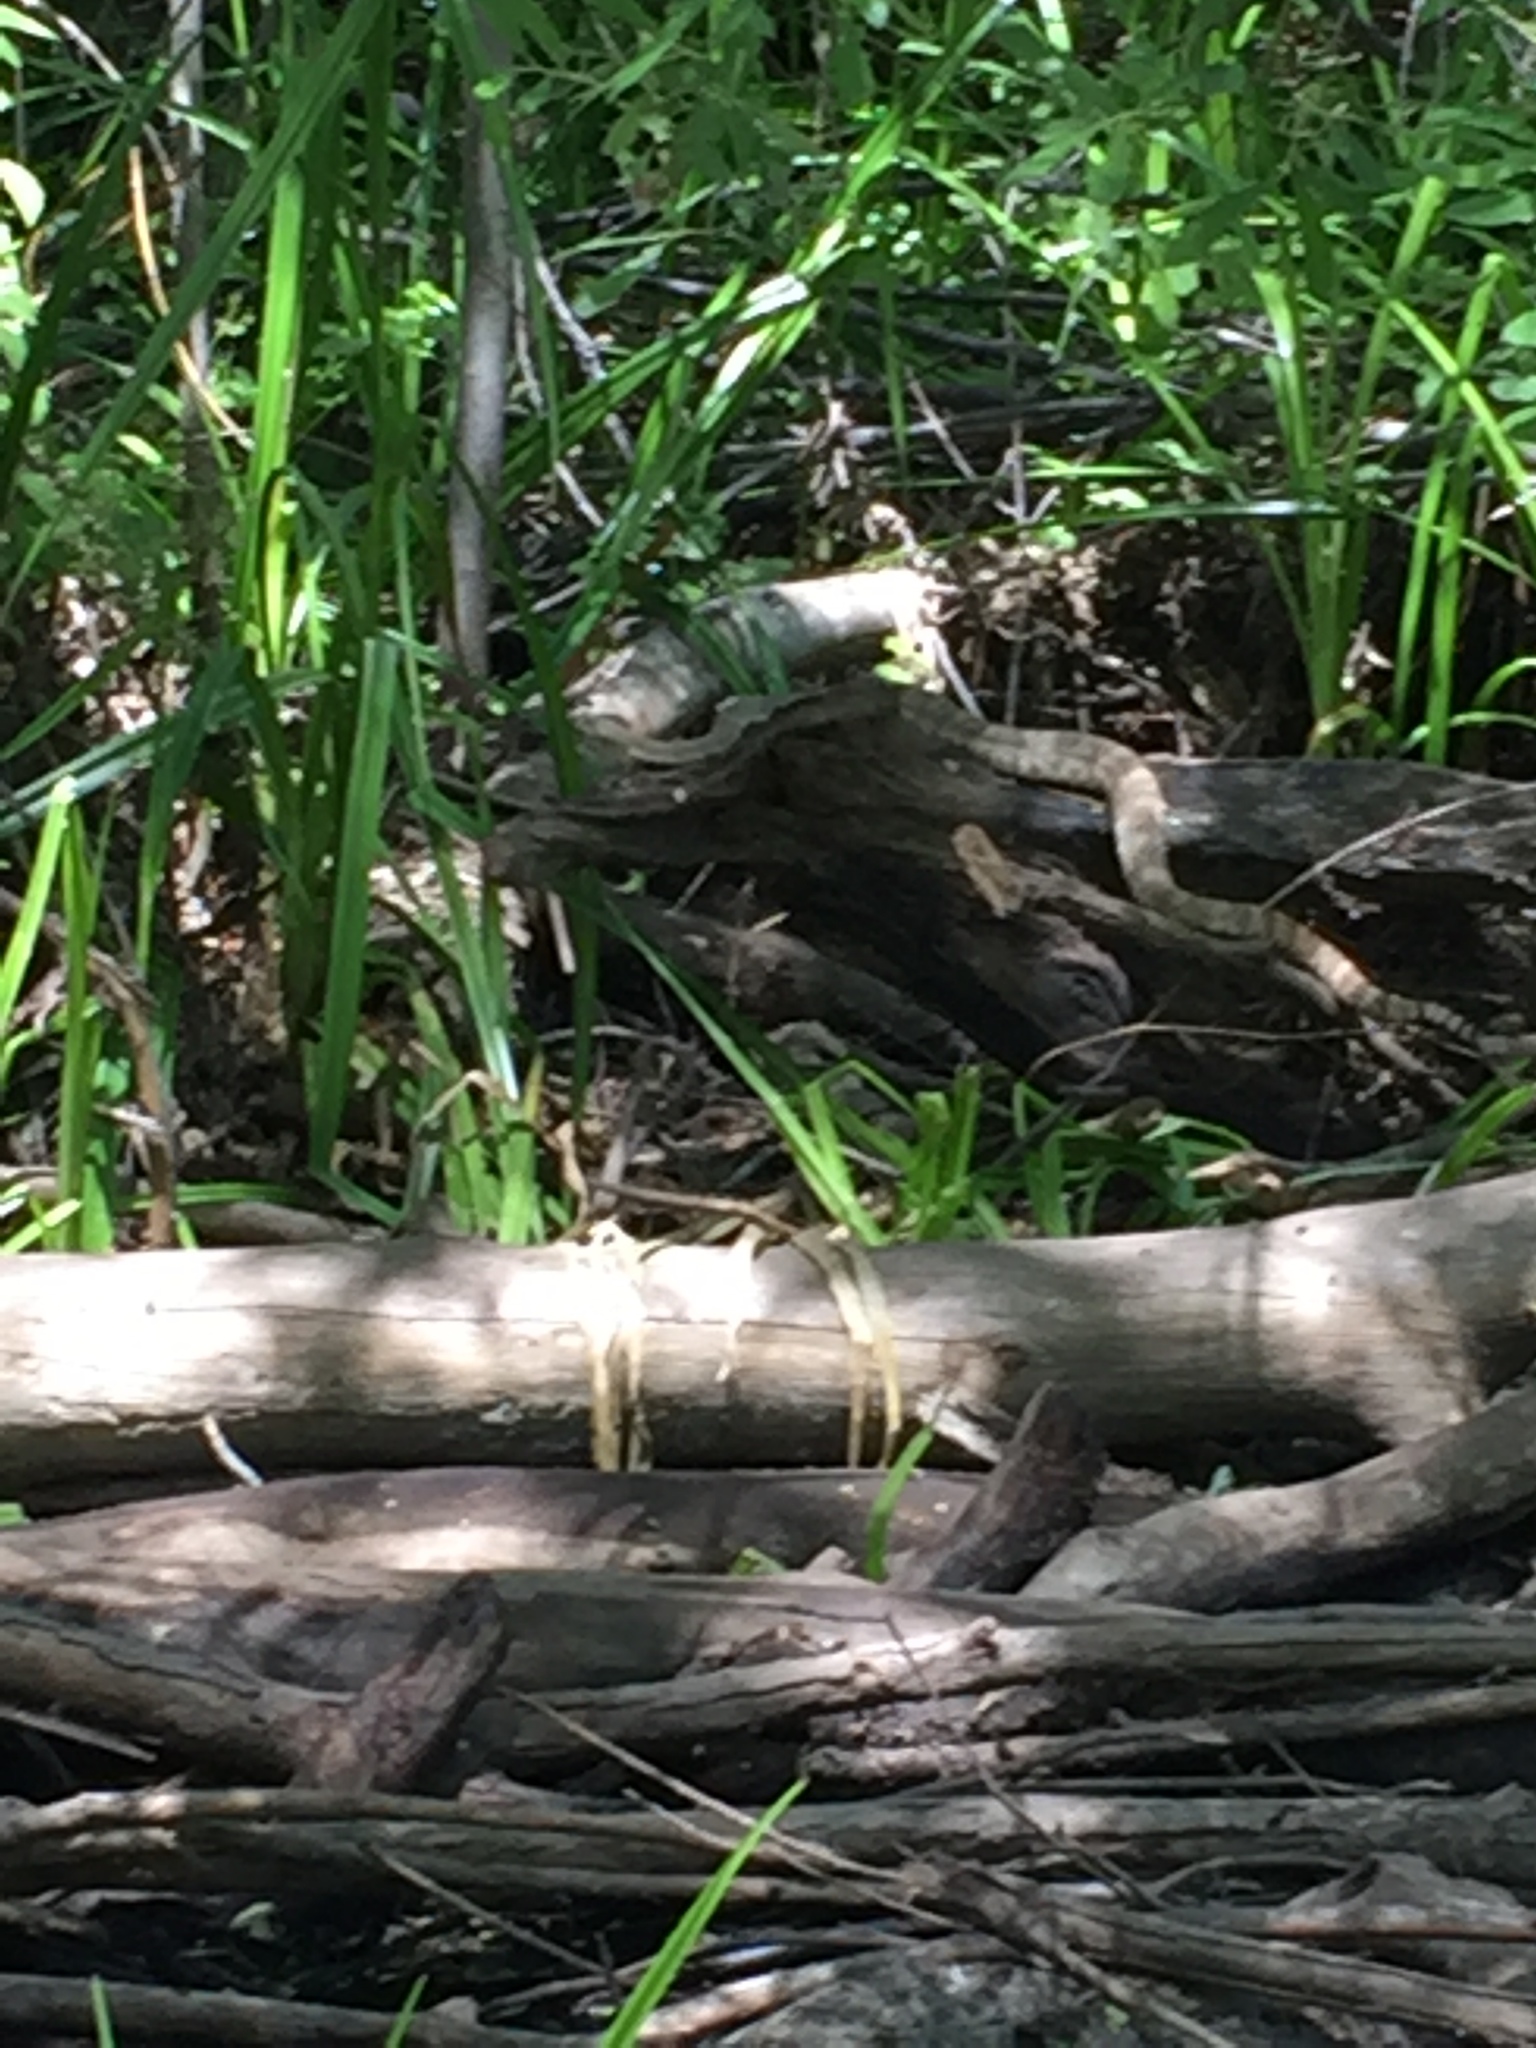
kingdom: Animalia
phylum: Chordata
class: Squamata
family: Viperidae
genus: Crotalus
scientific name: Crotalus pyrrhus
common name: Southwestern speckled rattlesnake
